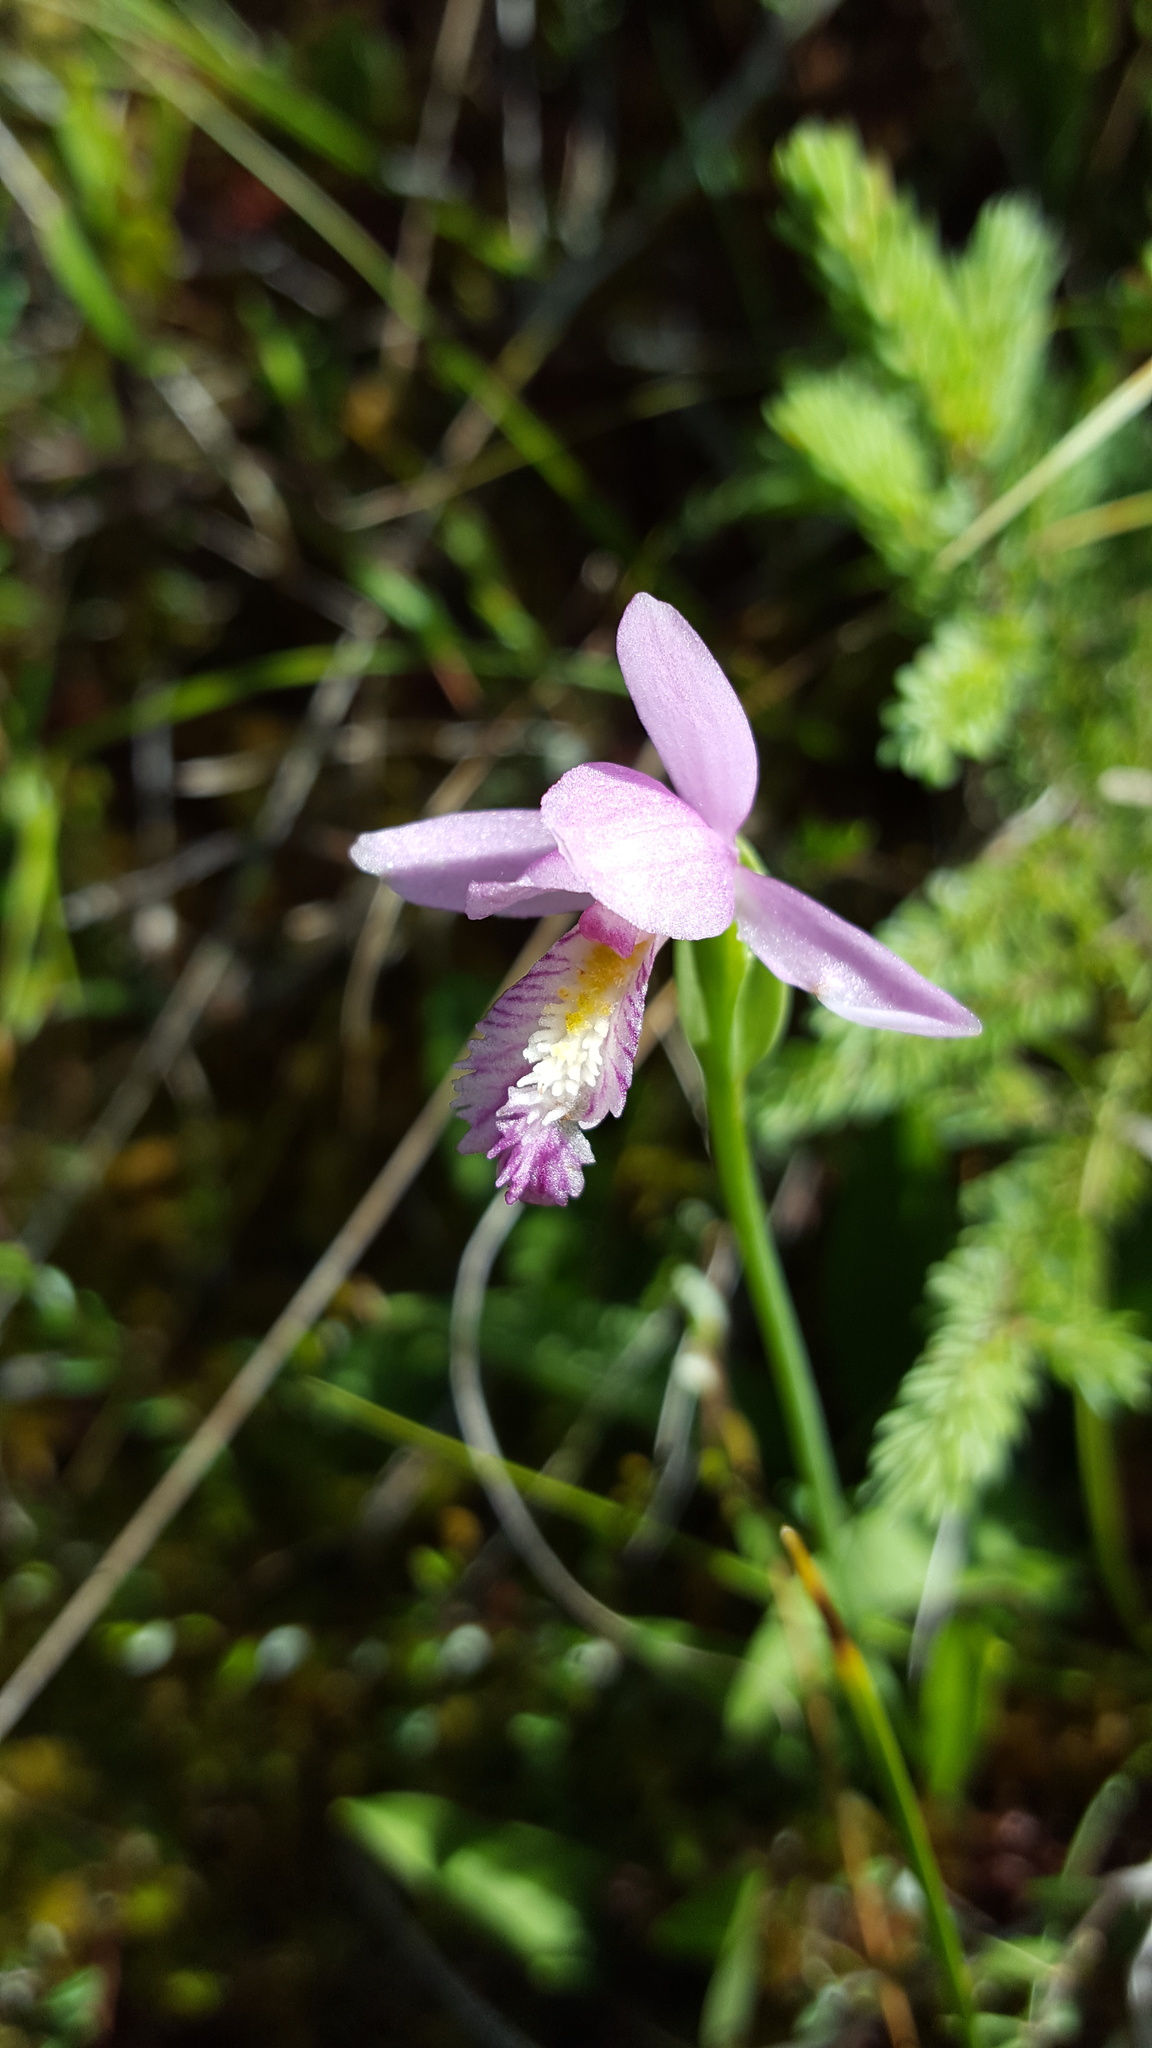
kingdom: Plantae
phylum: Tracheophyta
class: Liliopsida
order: Asparagales
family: Orchidaceae
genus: Pogonia
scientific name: Pogonia ophioglossoides
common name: Rose pogonia
